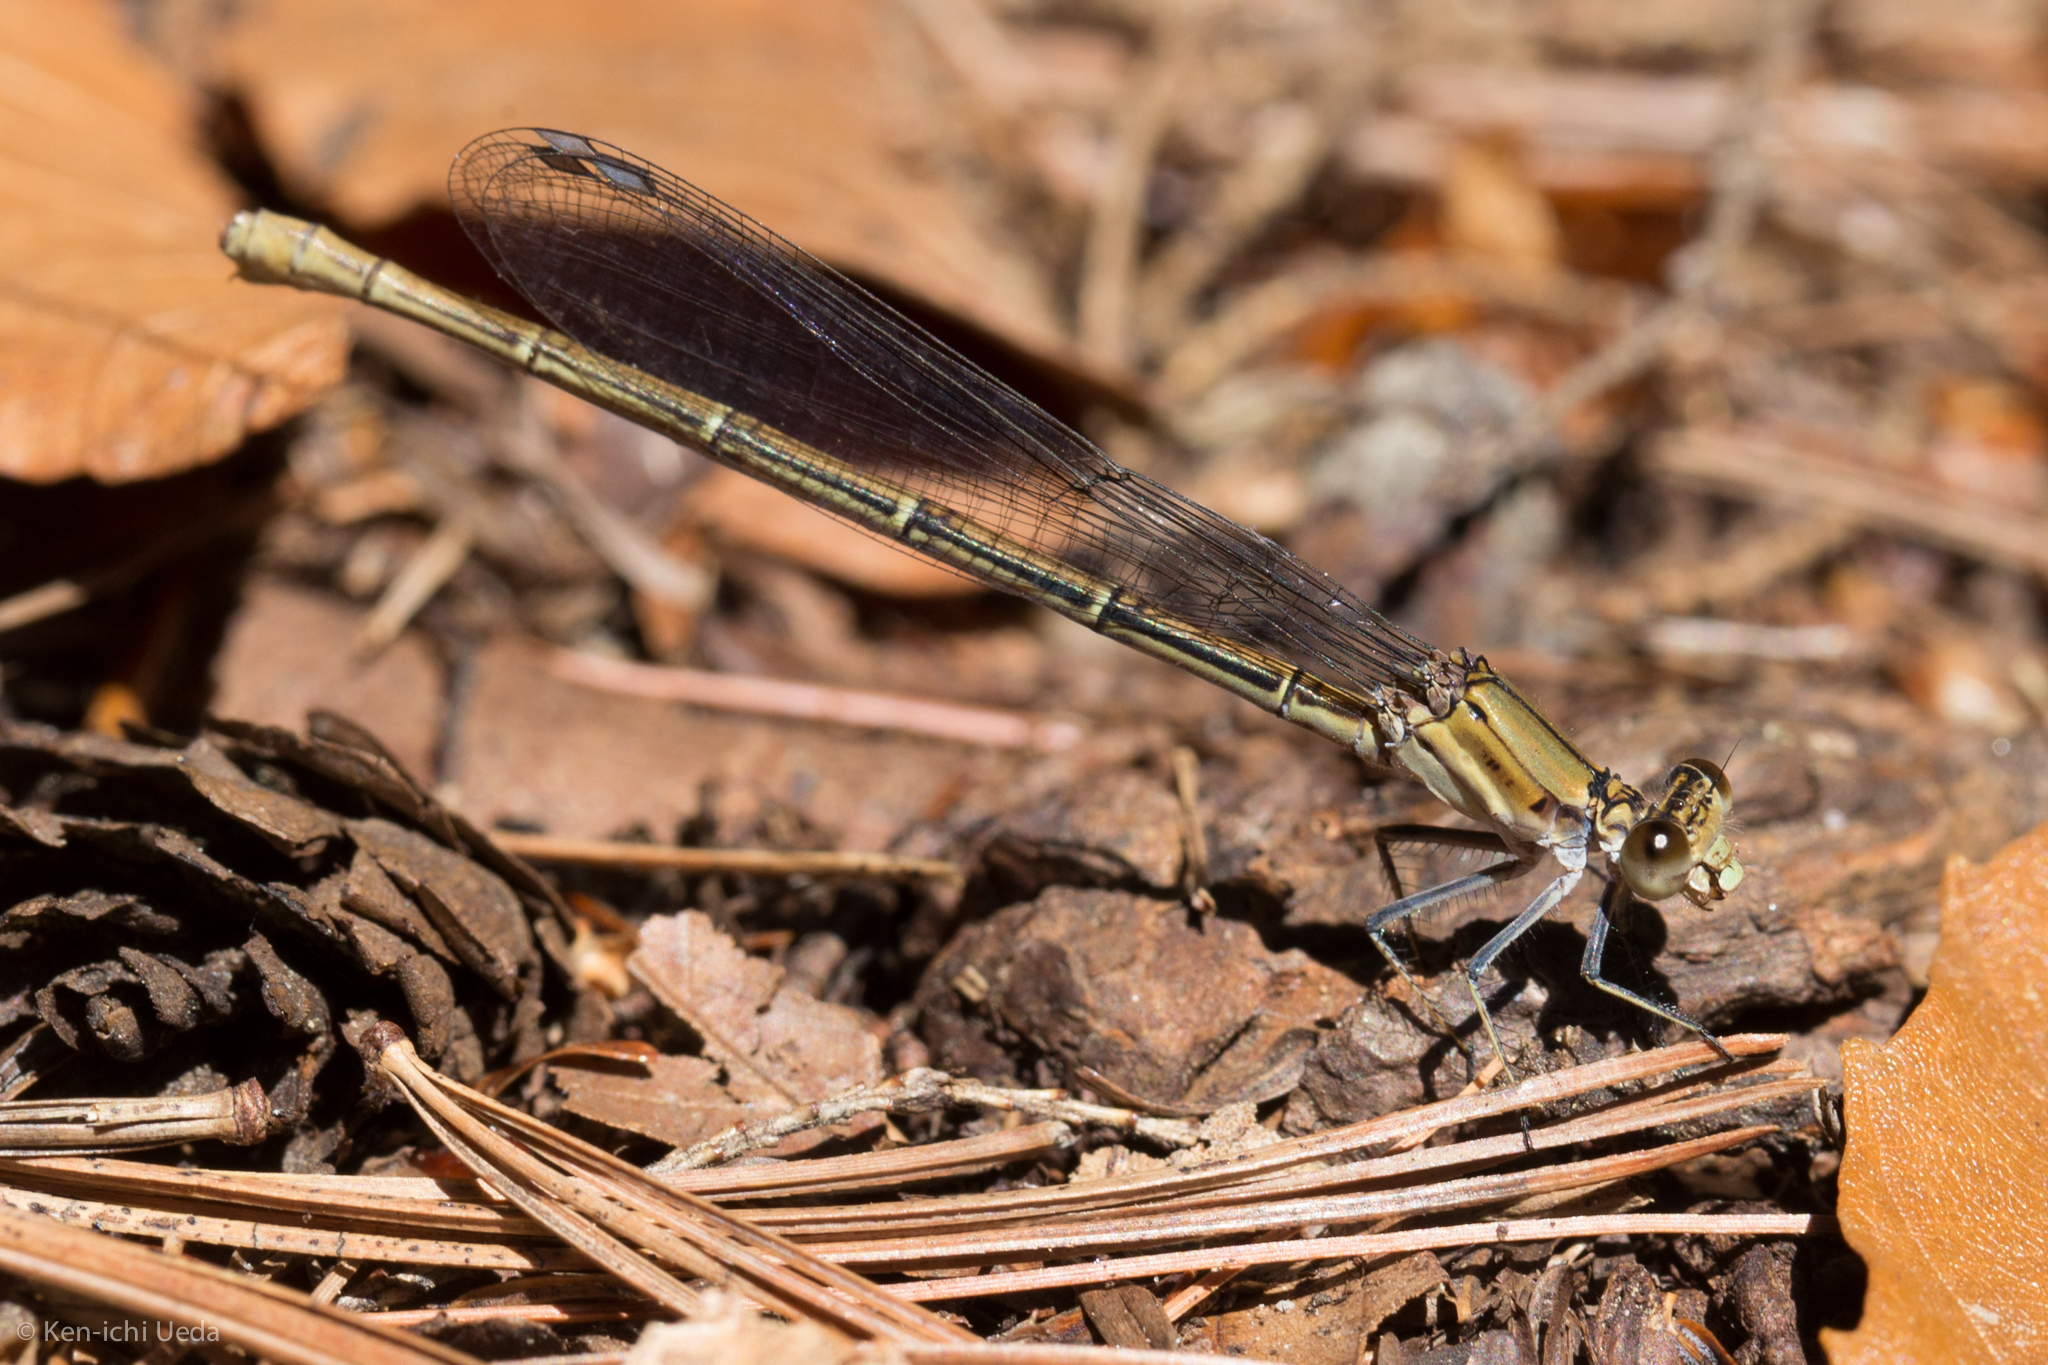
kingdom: Animalia
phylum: Arthropoda
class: Insecta
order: Odonata
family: Coenagrionidae
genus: Argia
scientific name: Argia moesta
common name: Powdered dancer
